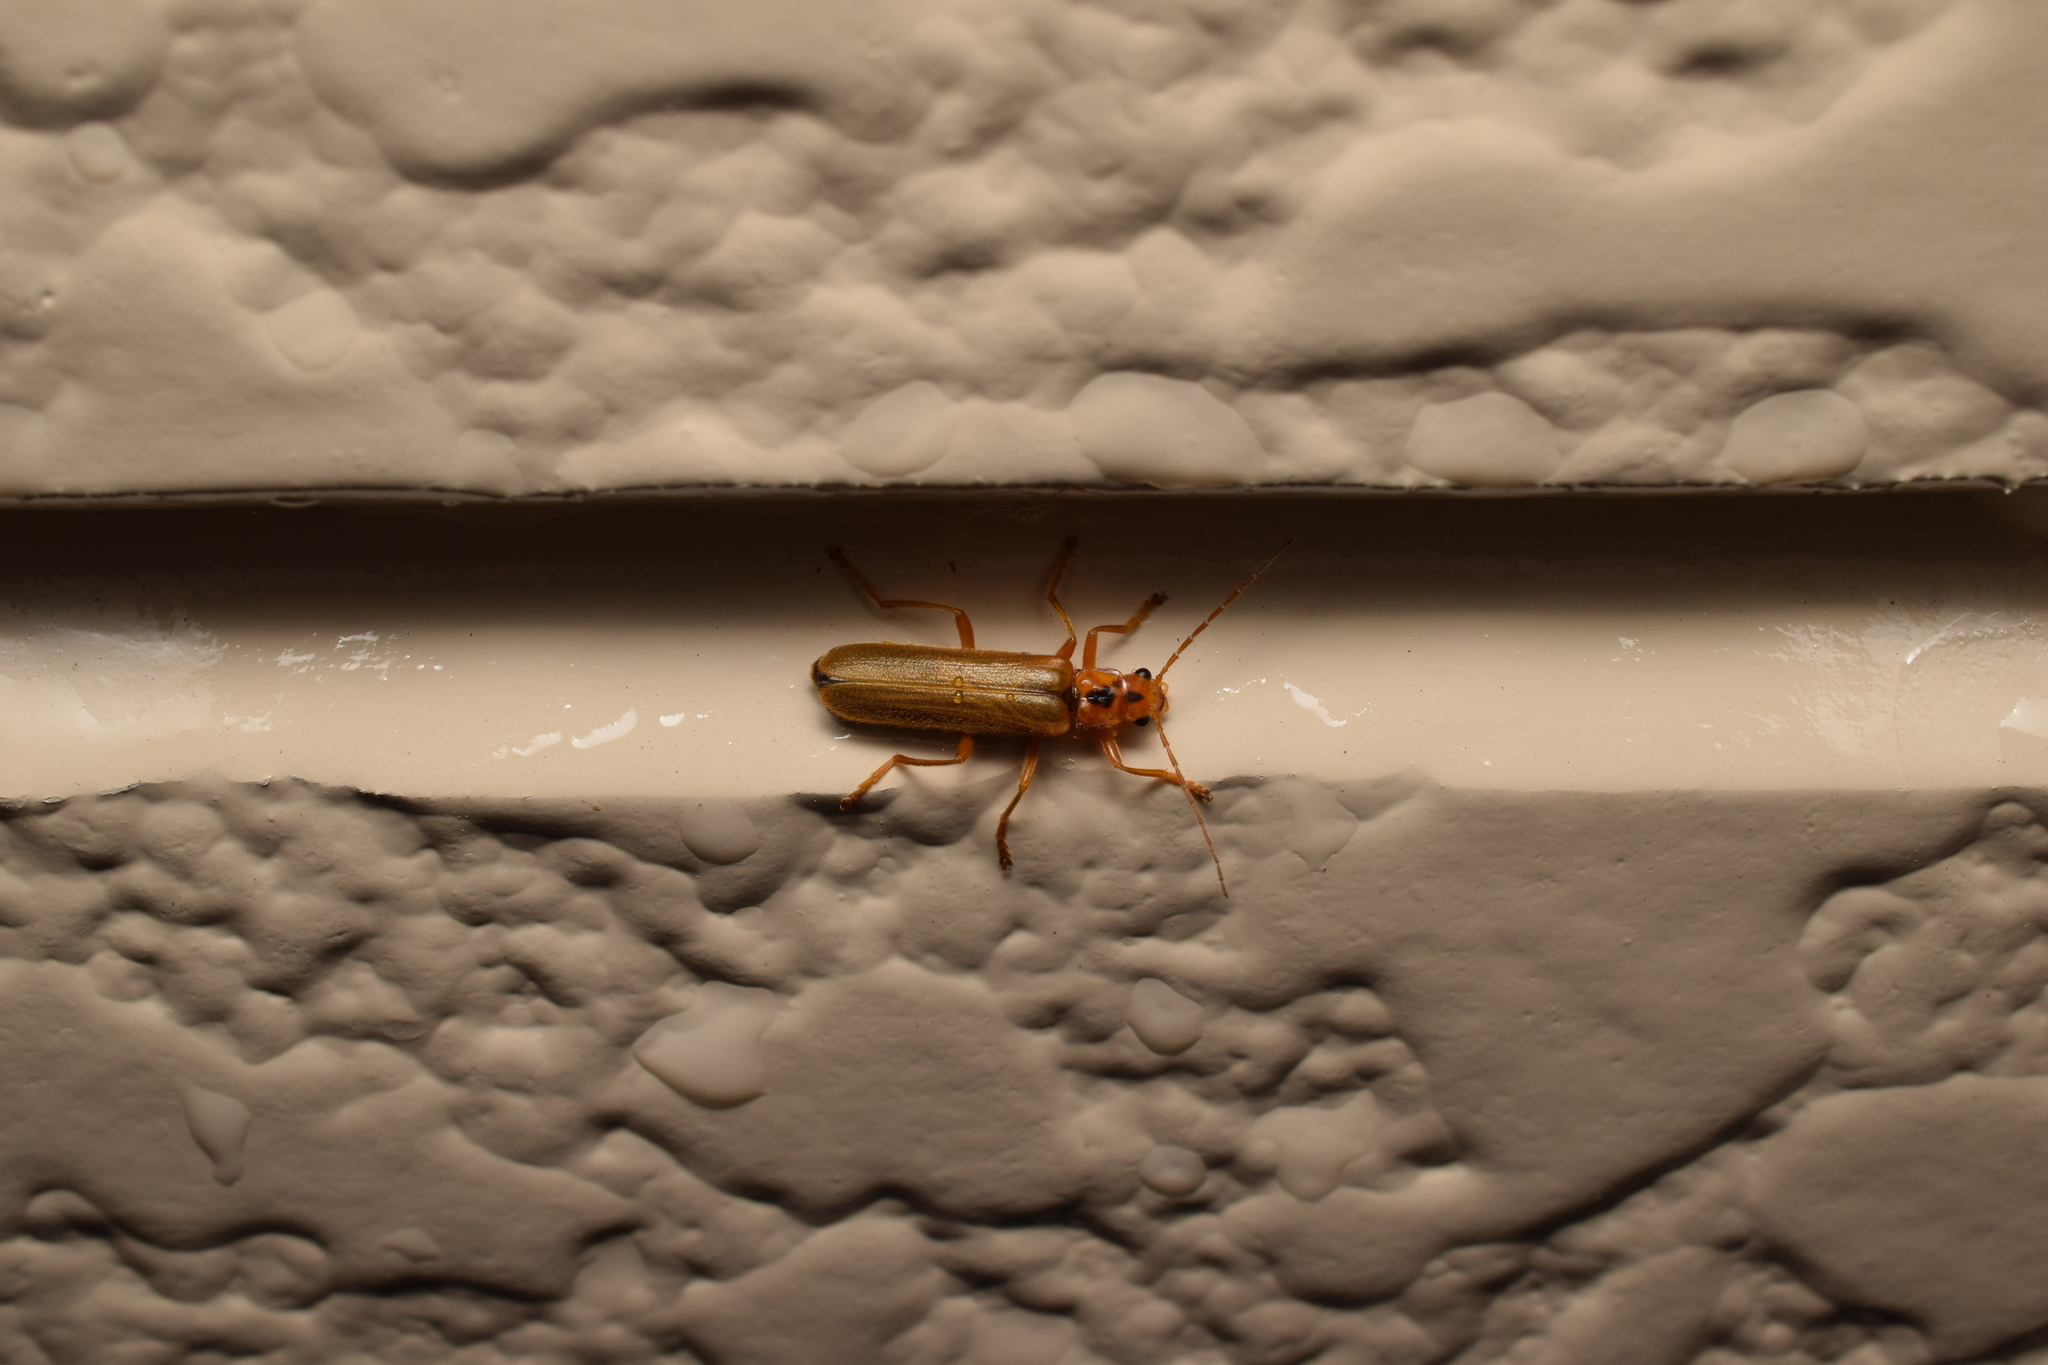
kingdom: Animalia
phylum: Arthropoda
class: Insecta
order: Coleoptera
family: Cantharidae
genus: Lycocerus
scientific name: Lycocerus vitellinus
